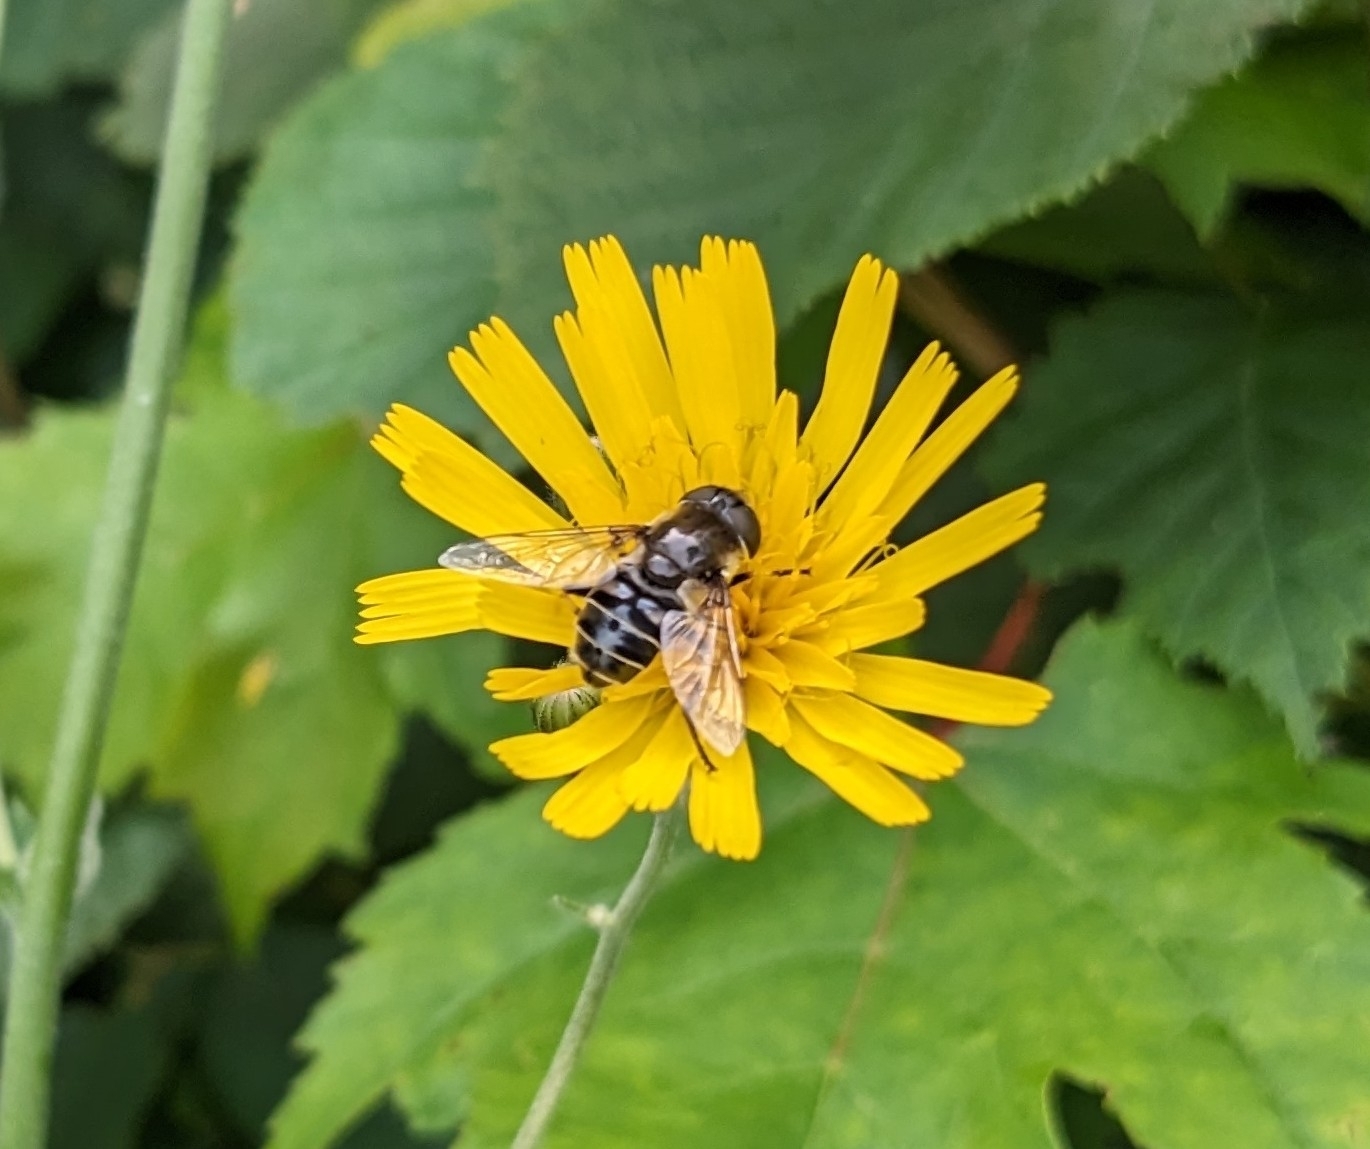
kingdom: Animalia
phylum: Arthropoda
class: Insecta
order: Diptera
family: Syrphidae
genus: Eristalis
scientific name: Eristalis dimidiata
